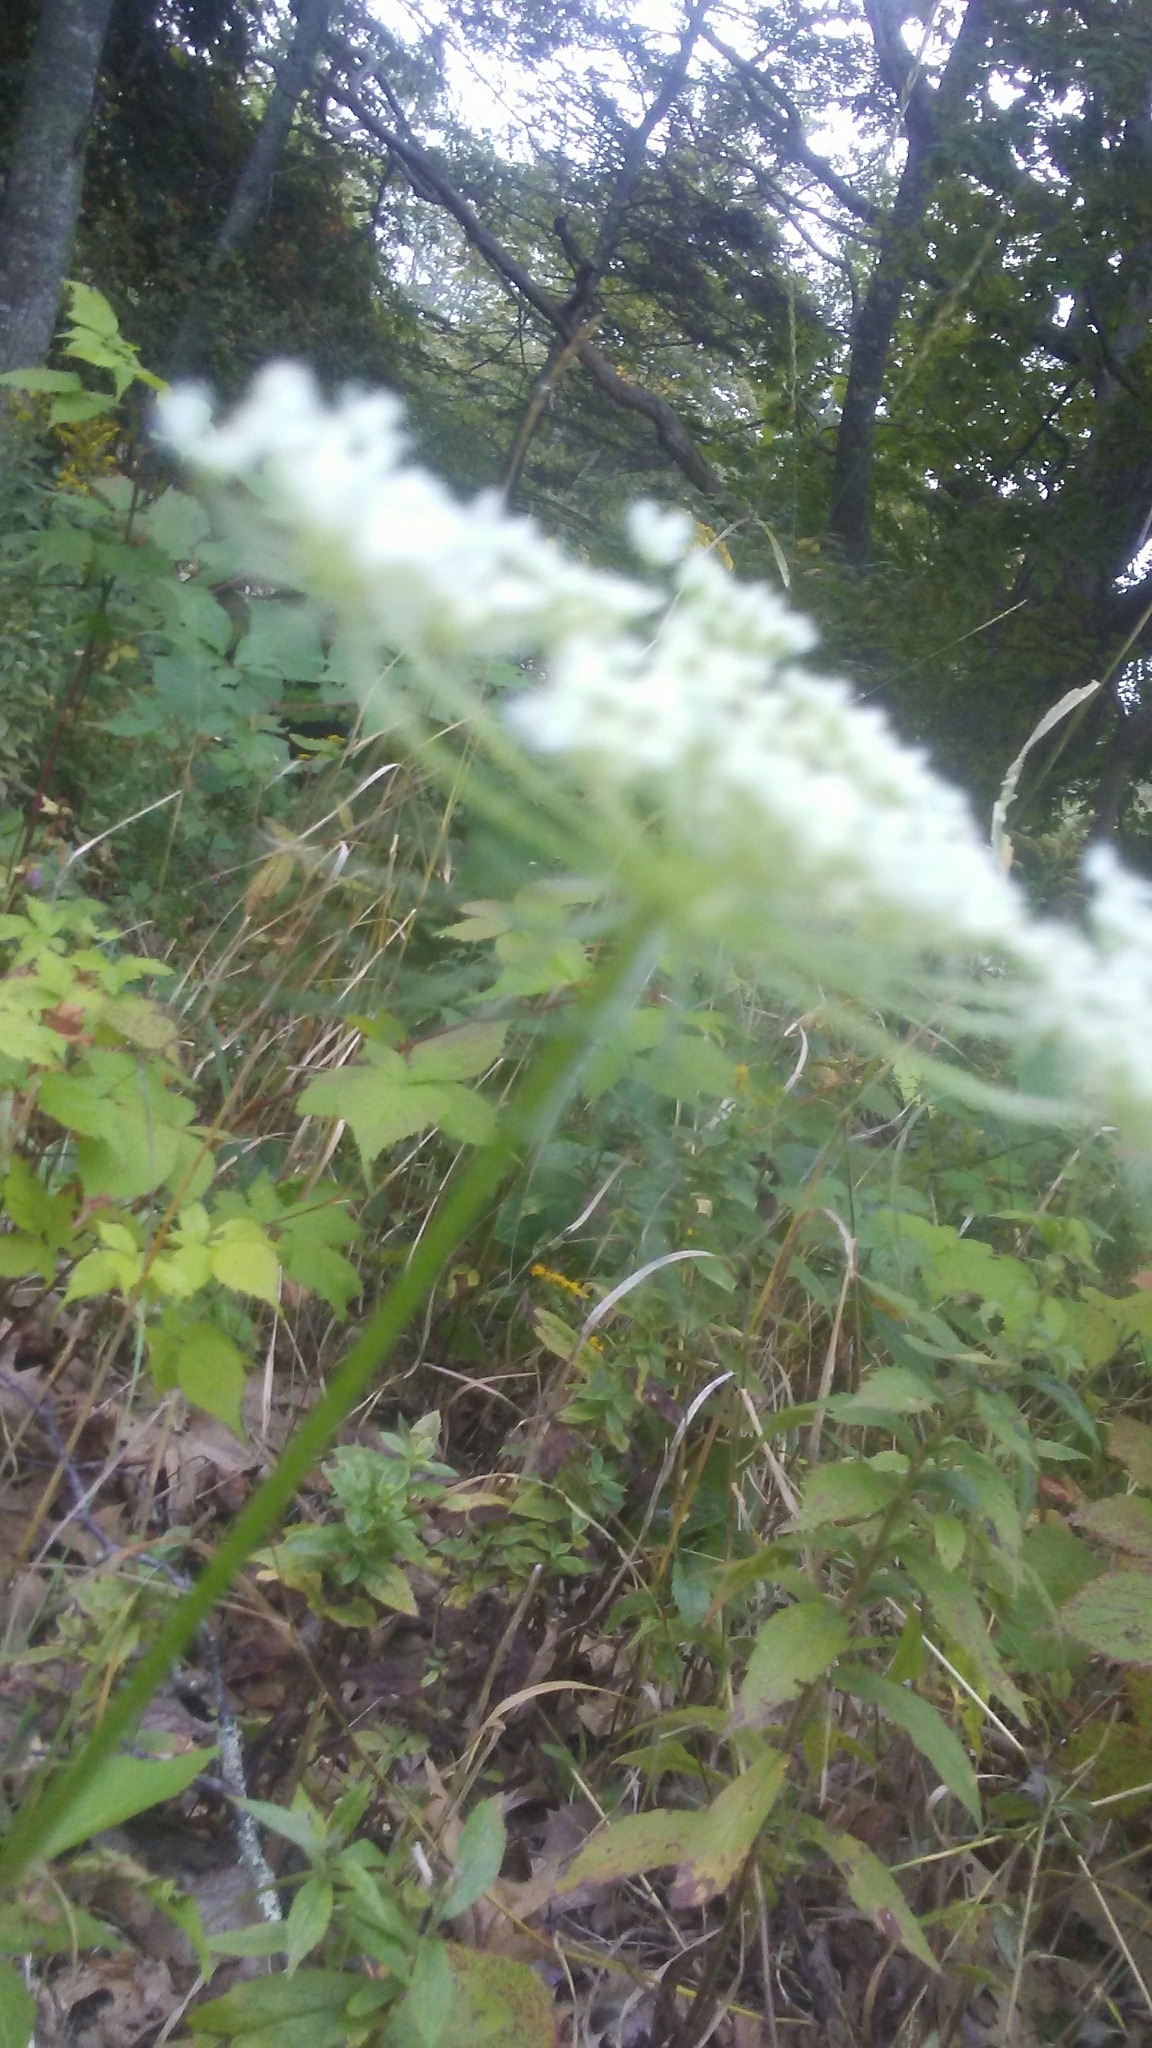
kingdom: Plantae
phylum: Tracheophyta
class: Magnoliopsida
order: Apiales
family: Apiaceae
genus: Daucus
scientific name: Daucus carota
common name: Wild carrot
